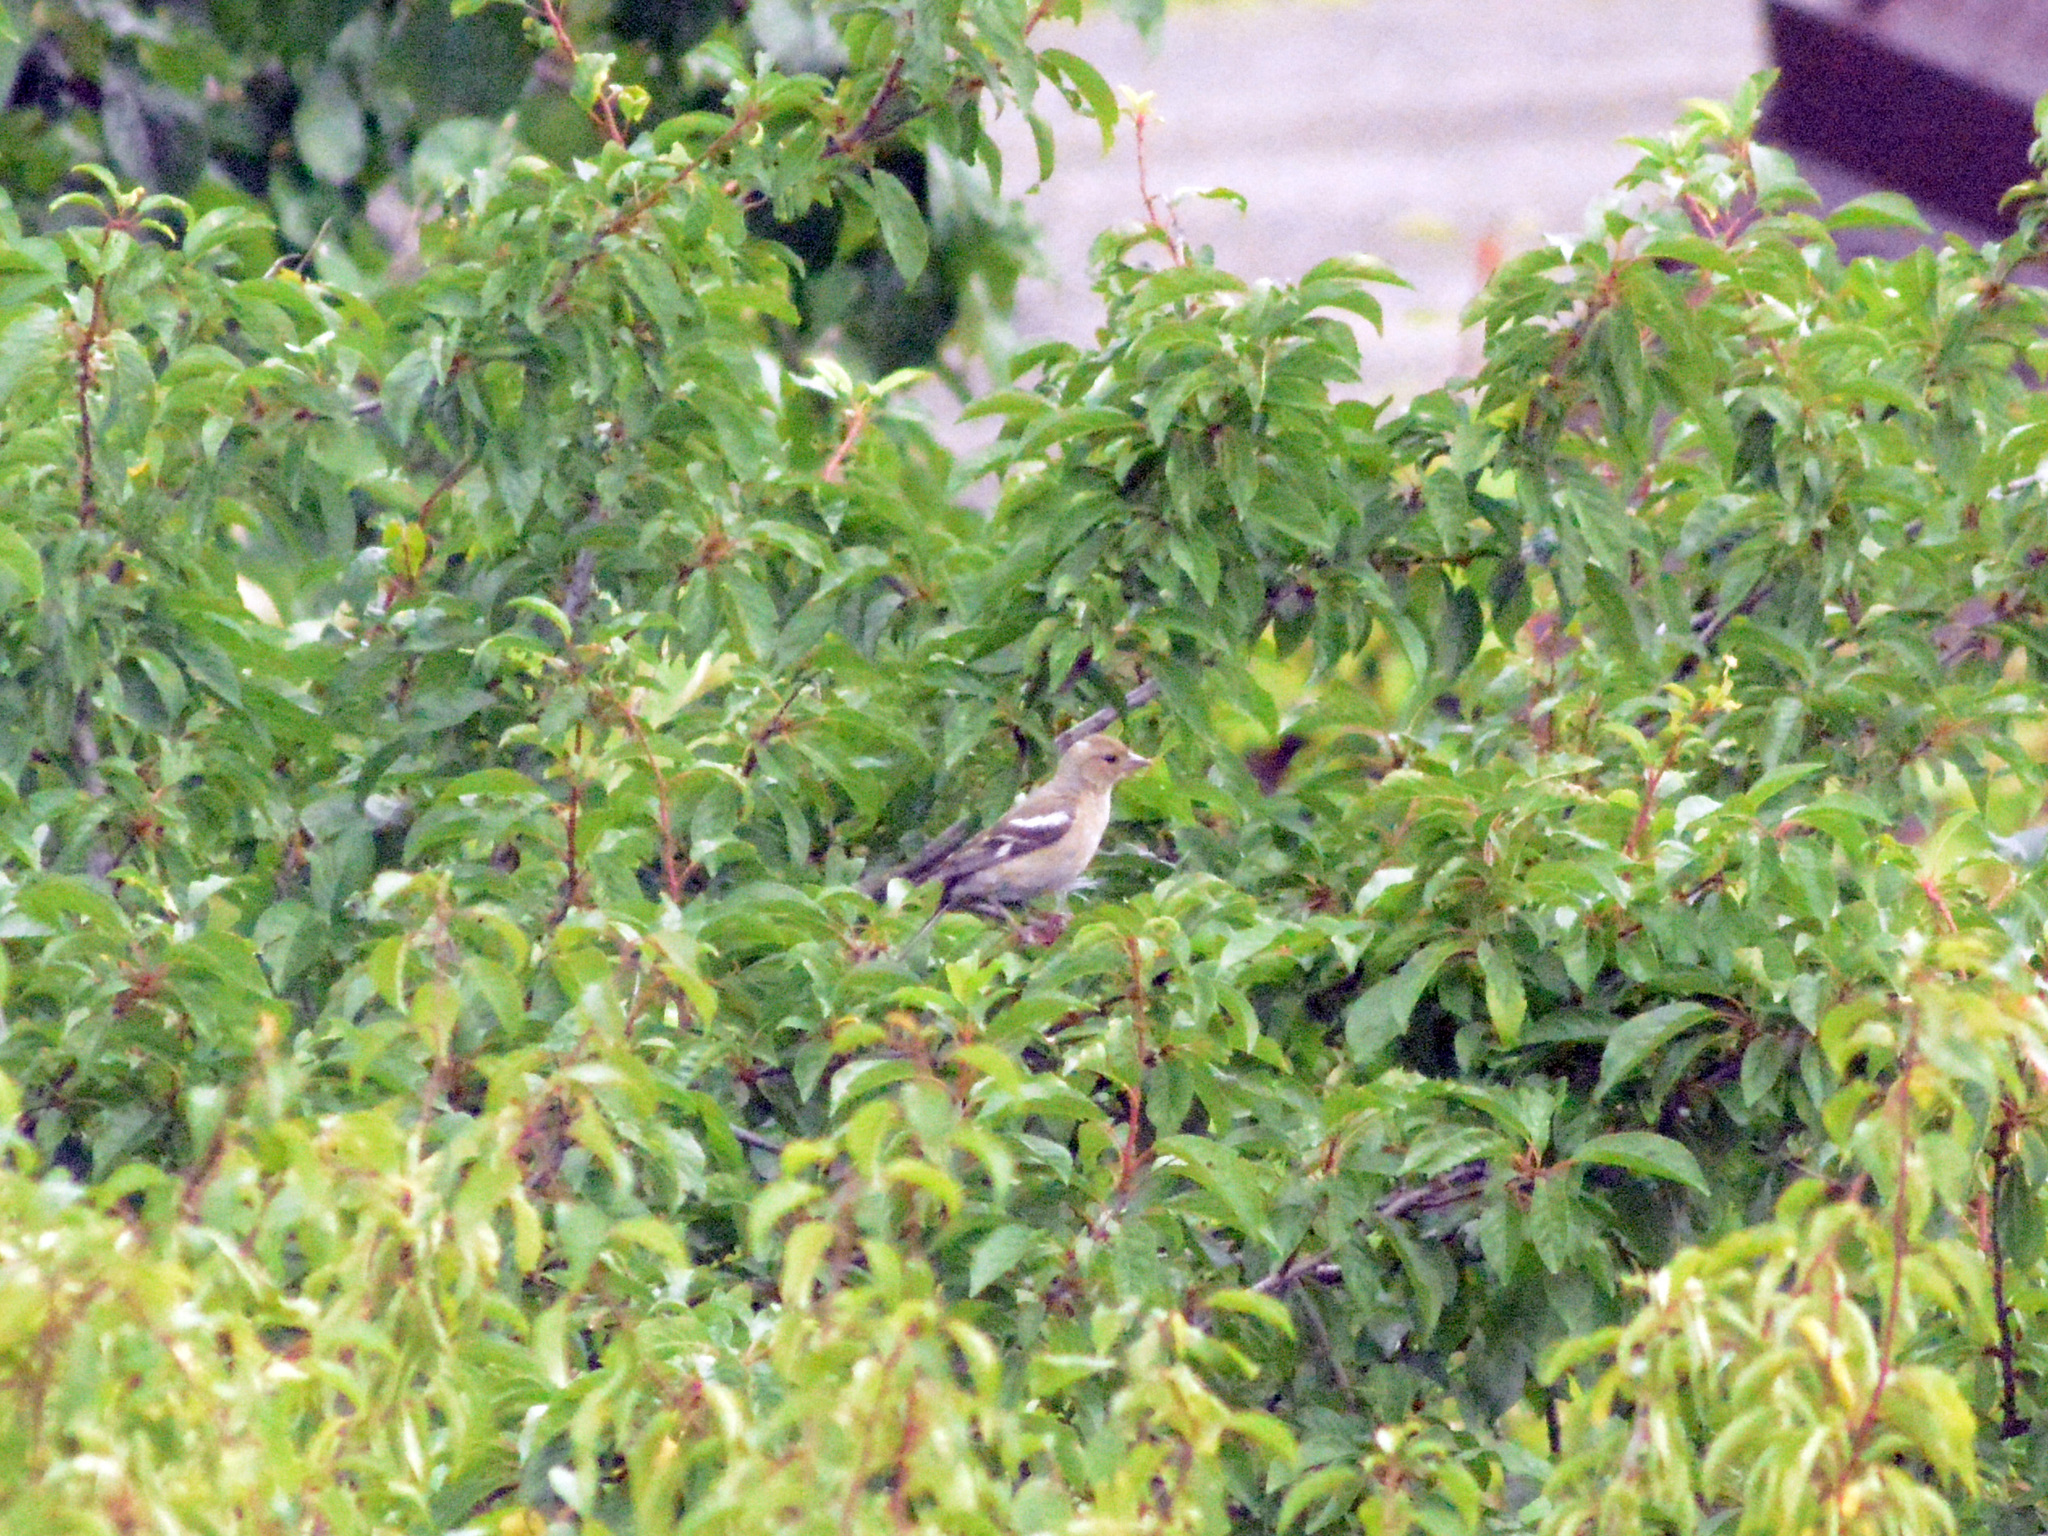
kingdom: Animalia
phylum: Chordata
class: Aves
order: Passeriformes
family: Fringillidae
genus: Fringilla
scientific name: Fringilla coelebs
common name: Common chaffinch
